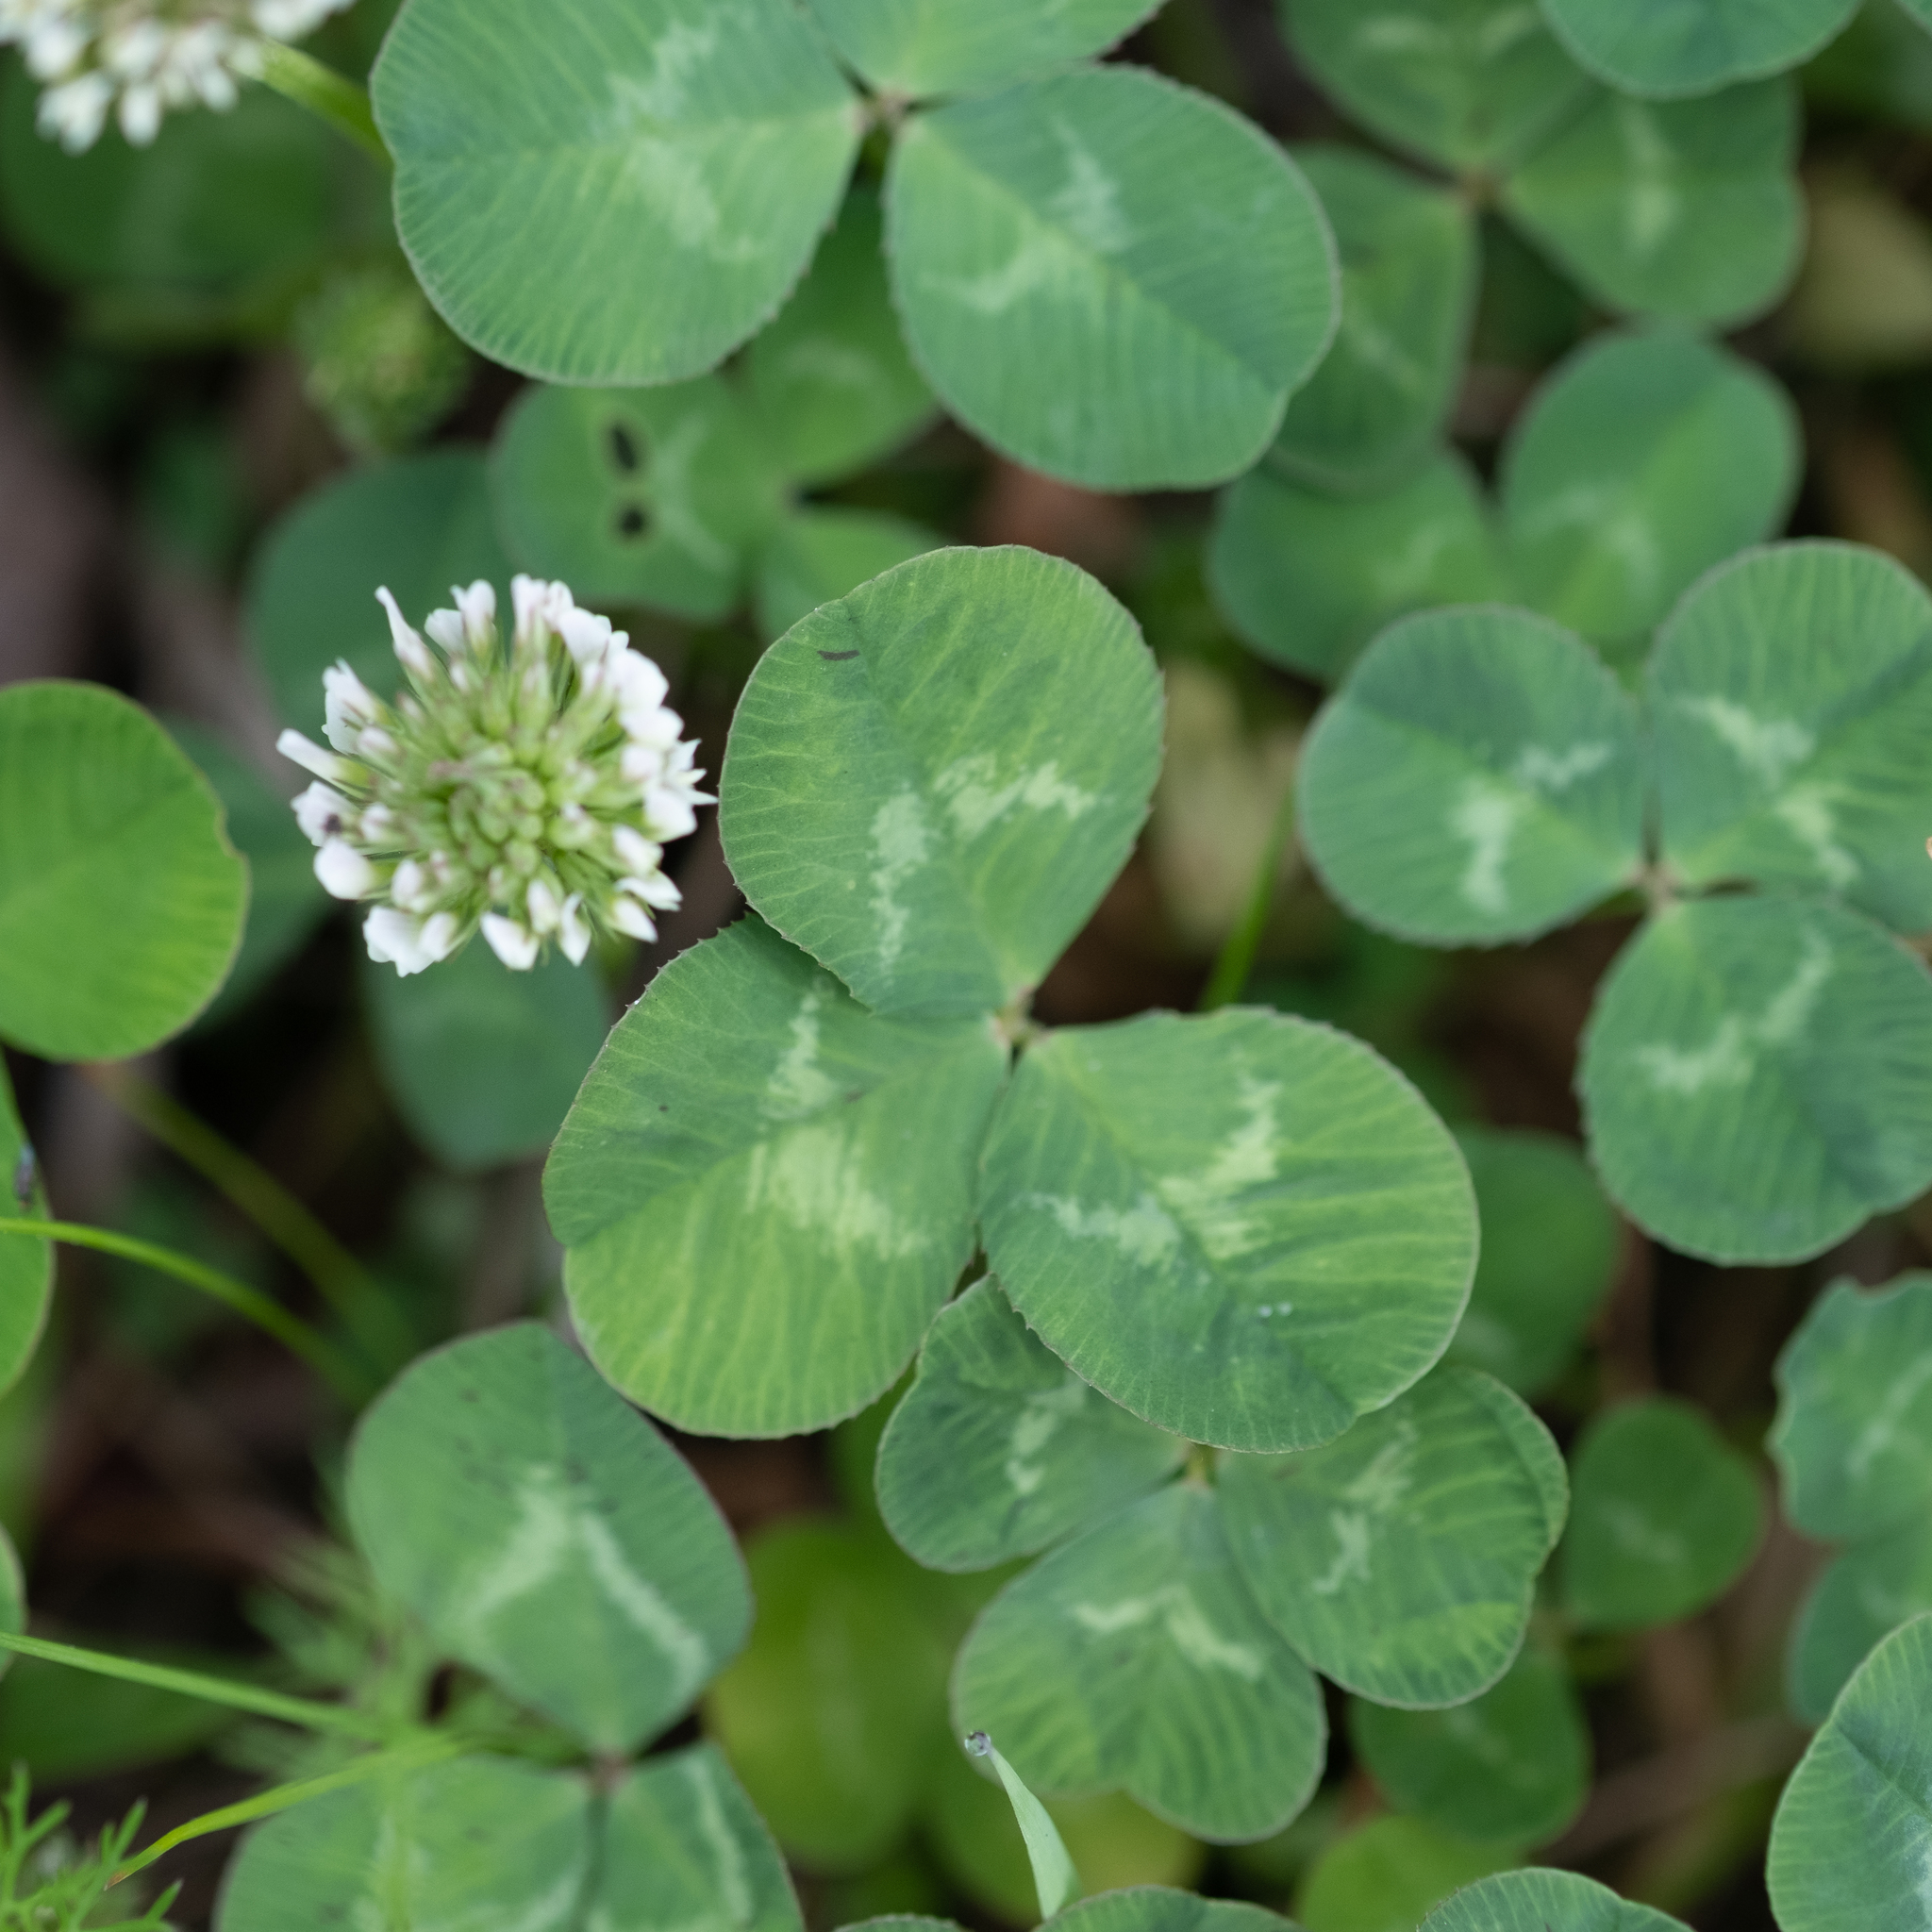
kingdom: Plantae
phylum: Tracheophyta
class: Magnoliopsida
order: Fabales
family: Fabaceae
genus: Trifolium
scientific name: Trifolium repens
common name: White clover
